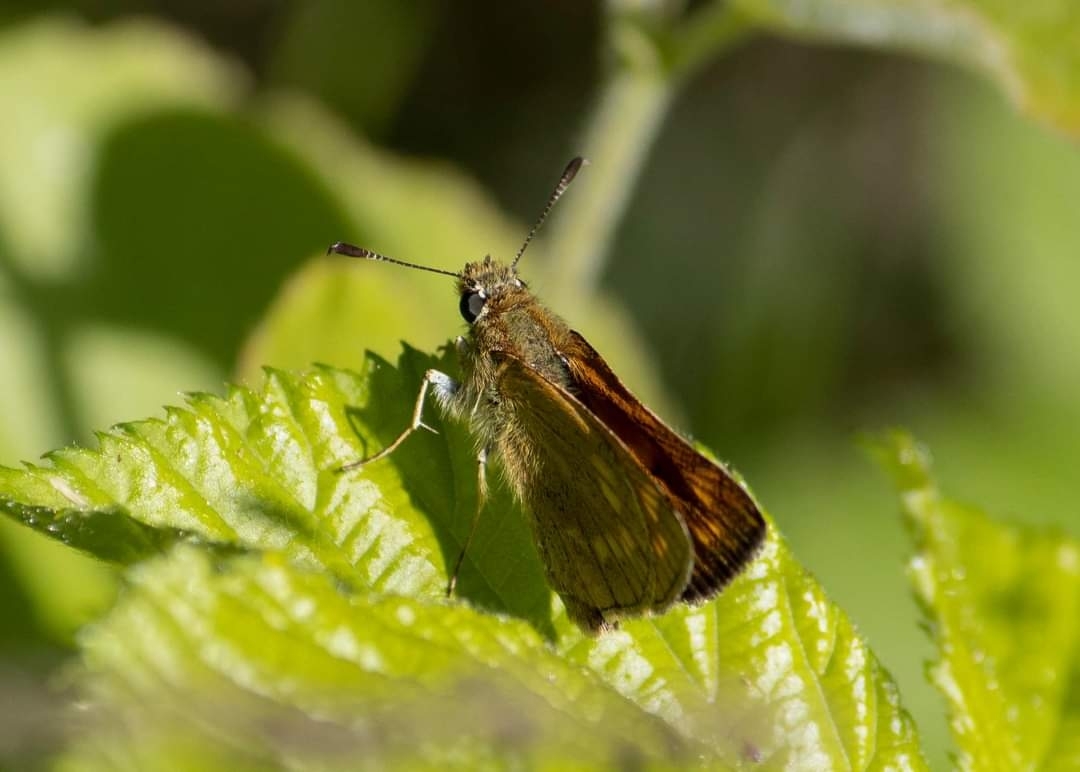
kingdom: Animalia
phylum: Arthropoda
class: Insecta
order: Lepidoptera
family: Hesperiidae
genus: Ochlodes
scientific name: Ochlodes venata
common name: Large skipper
